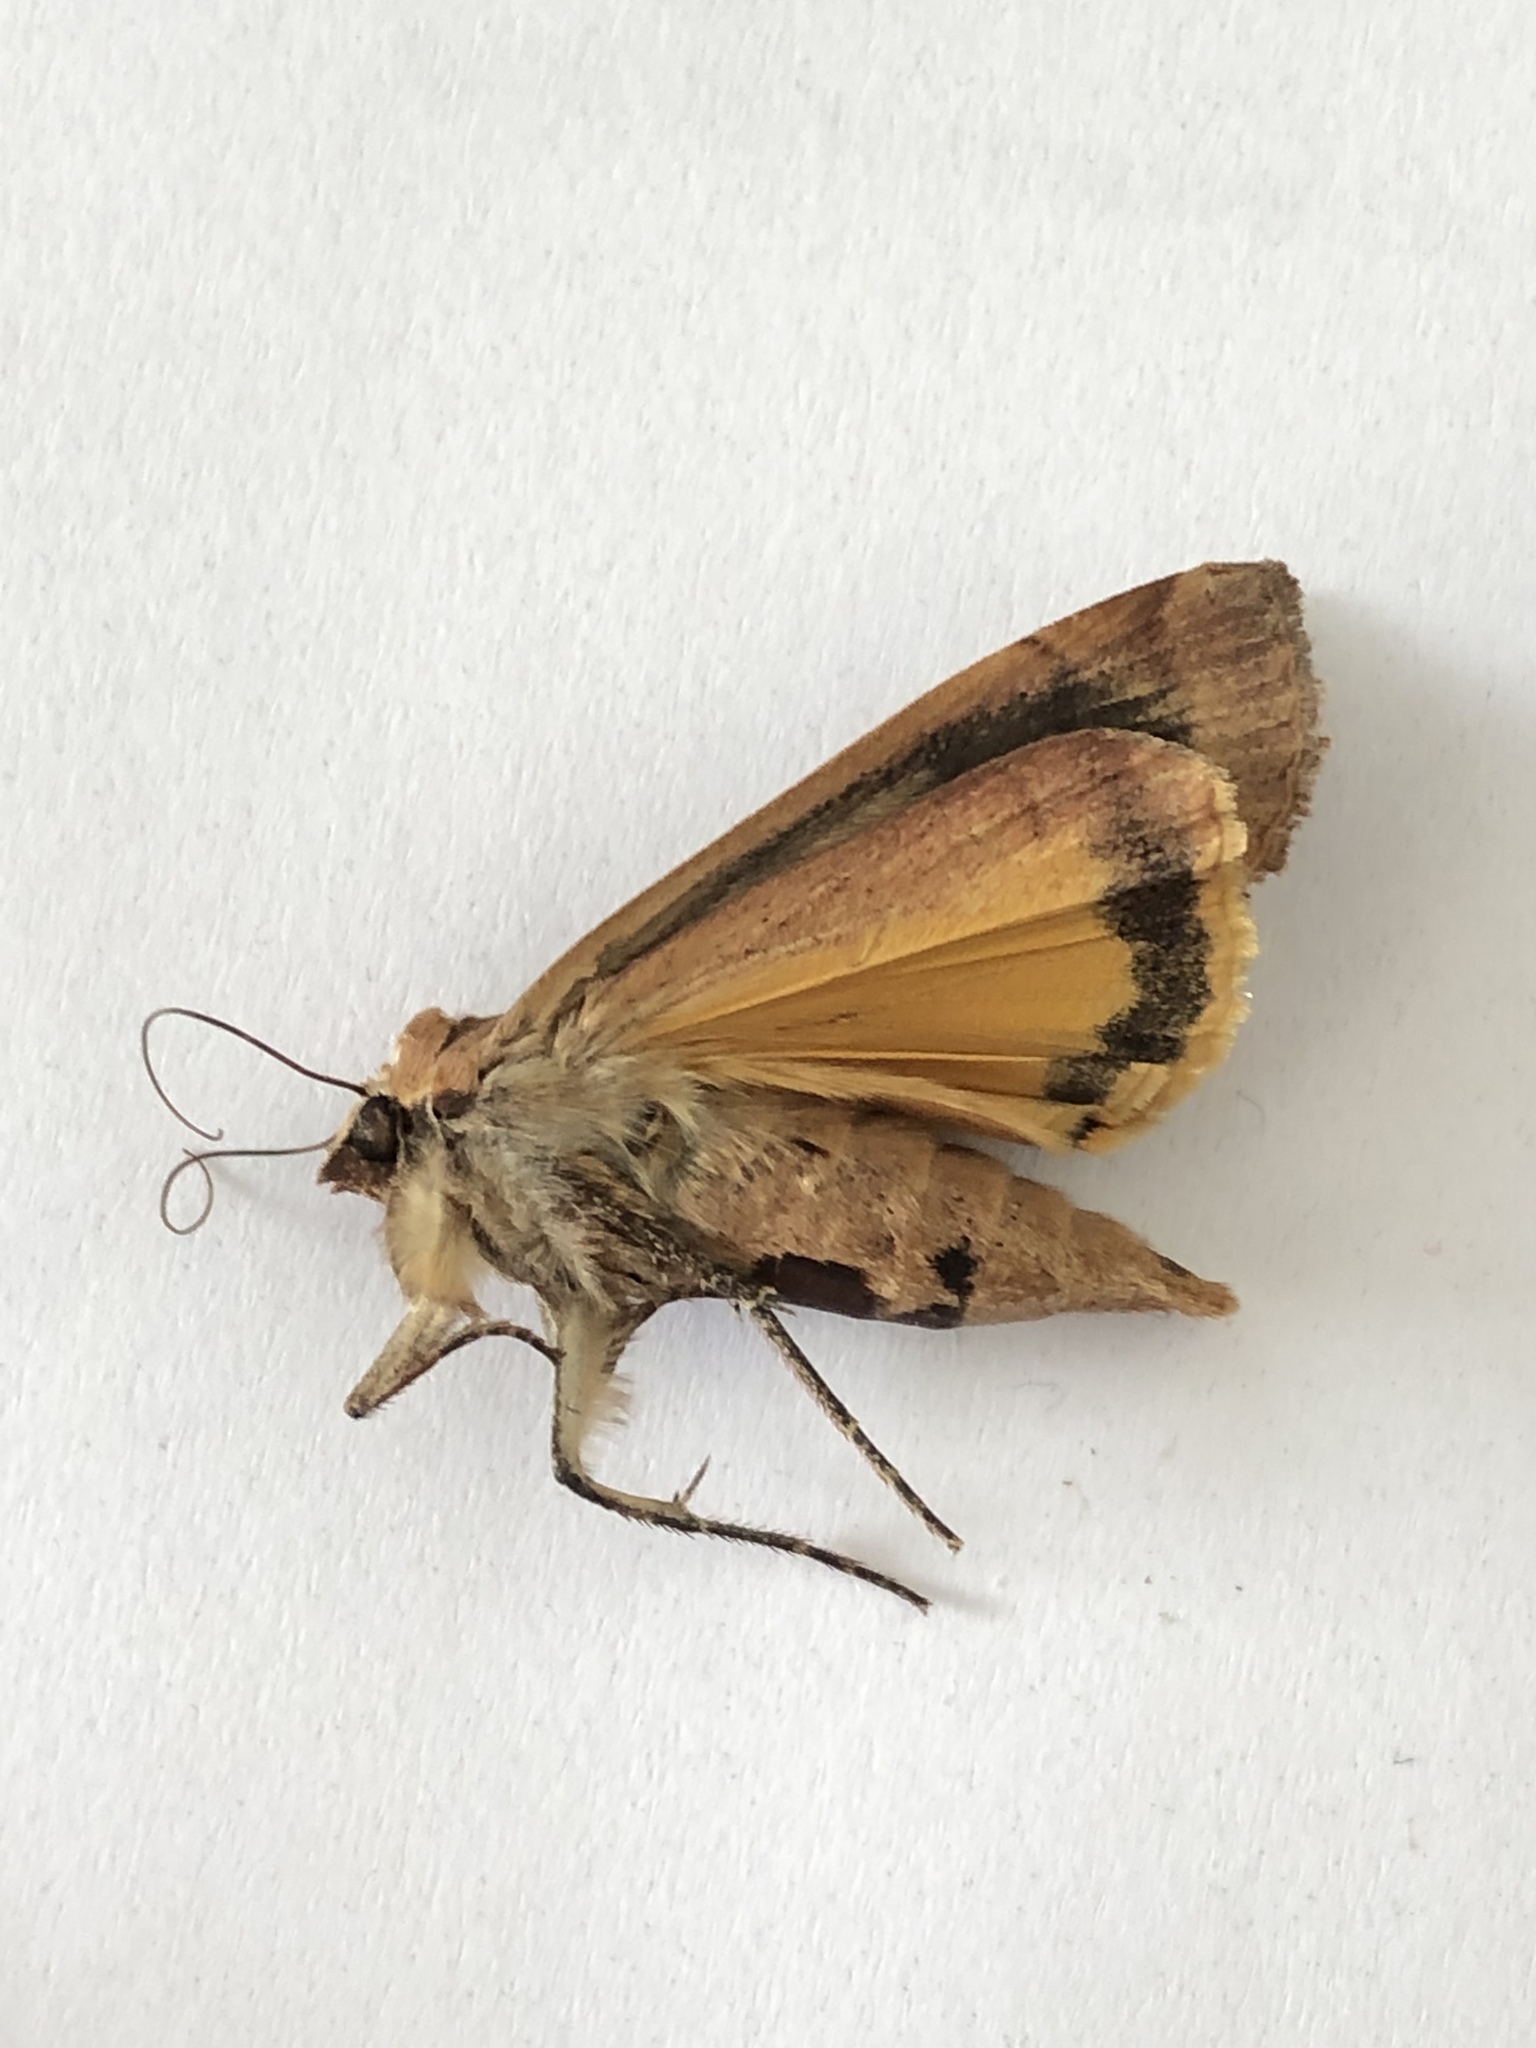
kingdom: Animalia
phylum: Arthropoda
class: Insecta
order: Lepidoptera
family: Noctuidae
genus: Noctua
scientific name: Noctua pronuba
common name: Large yellow underwing
